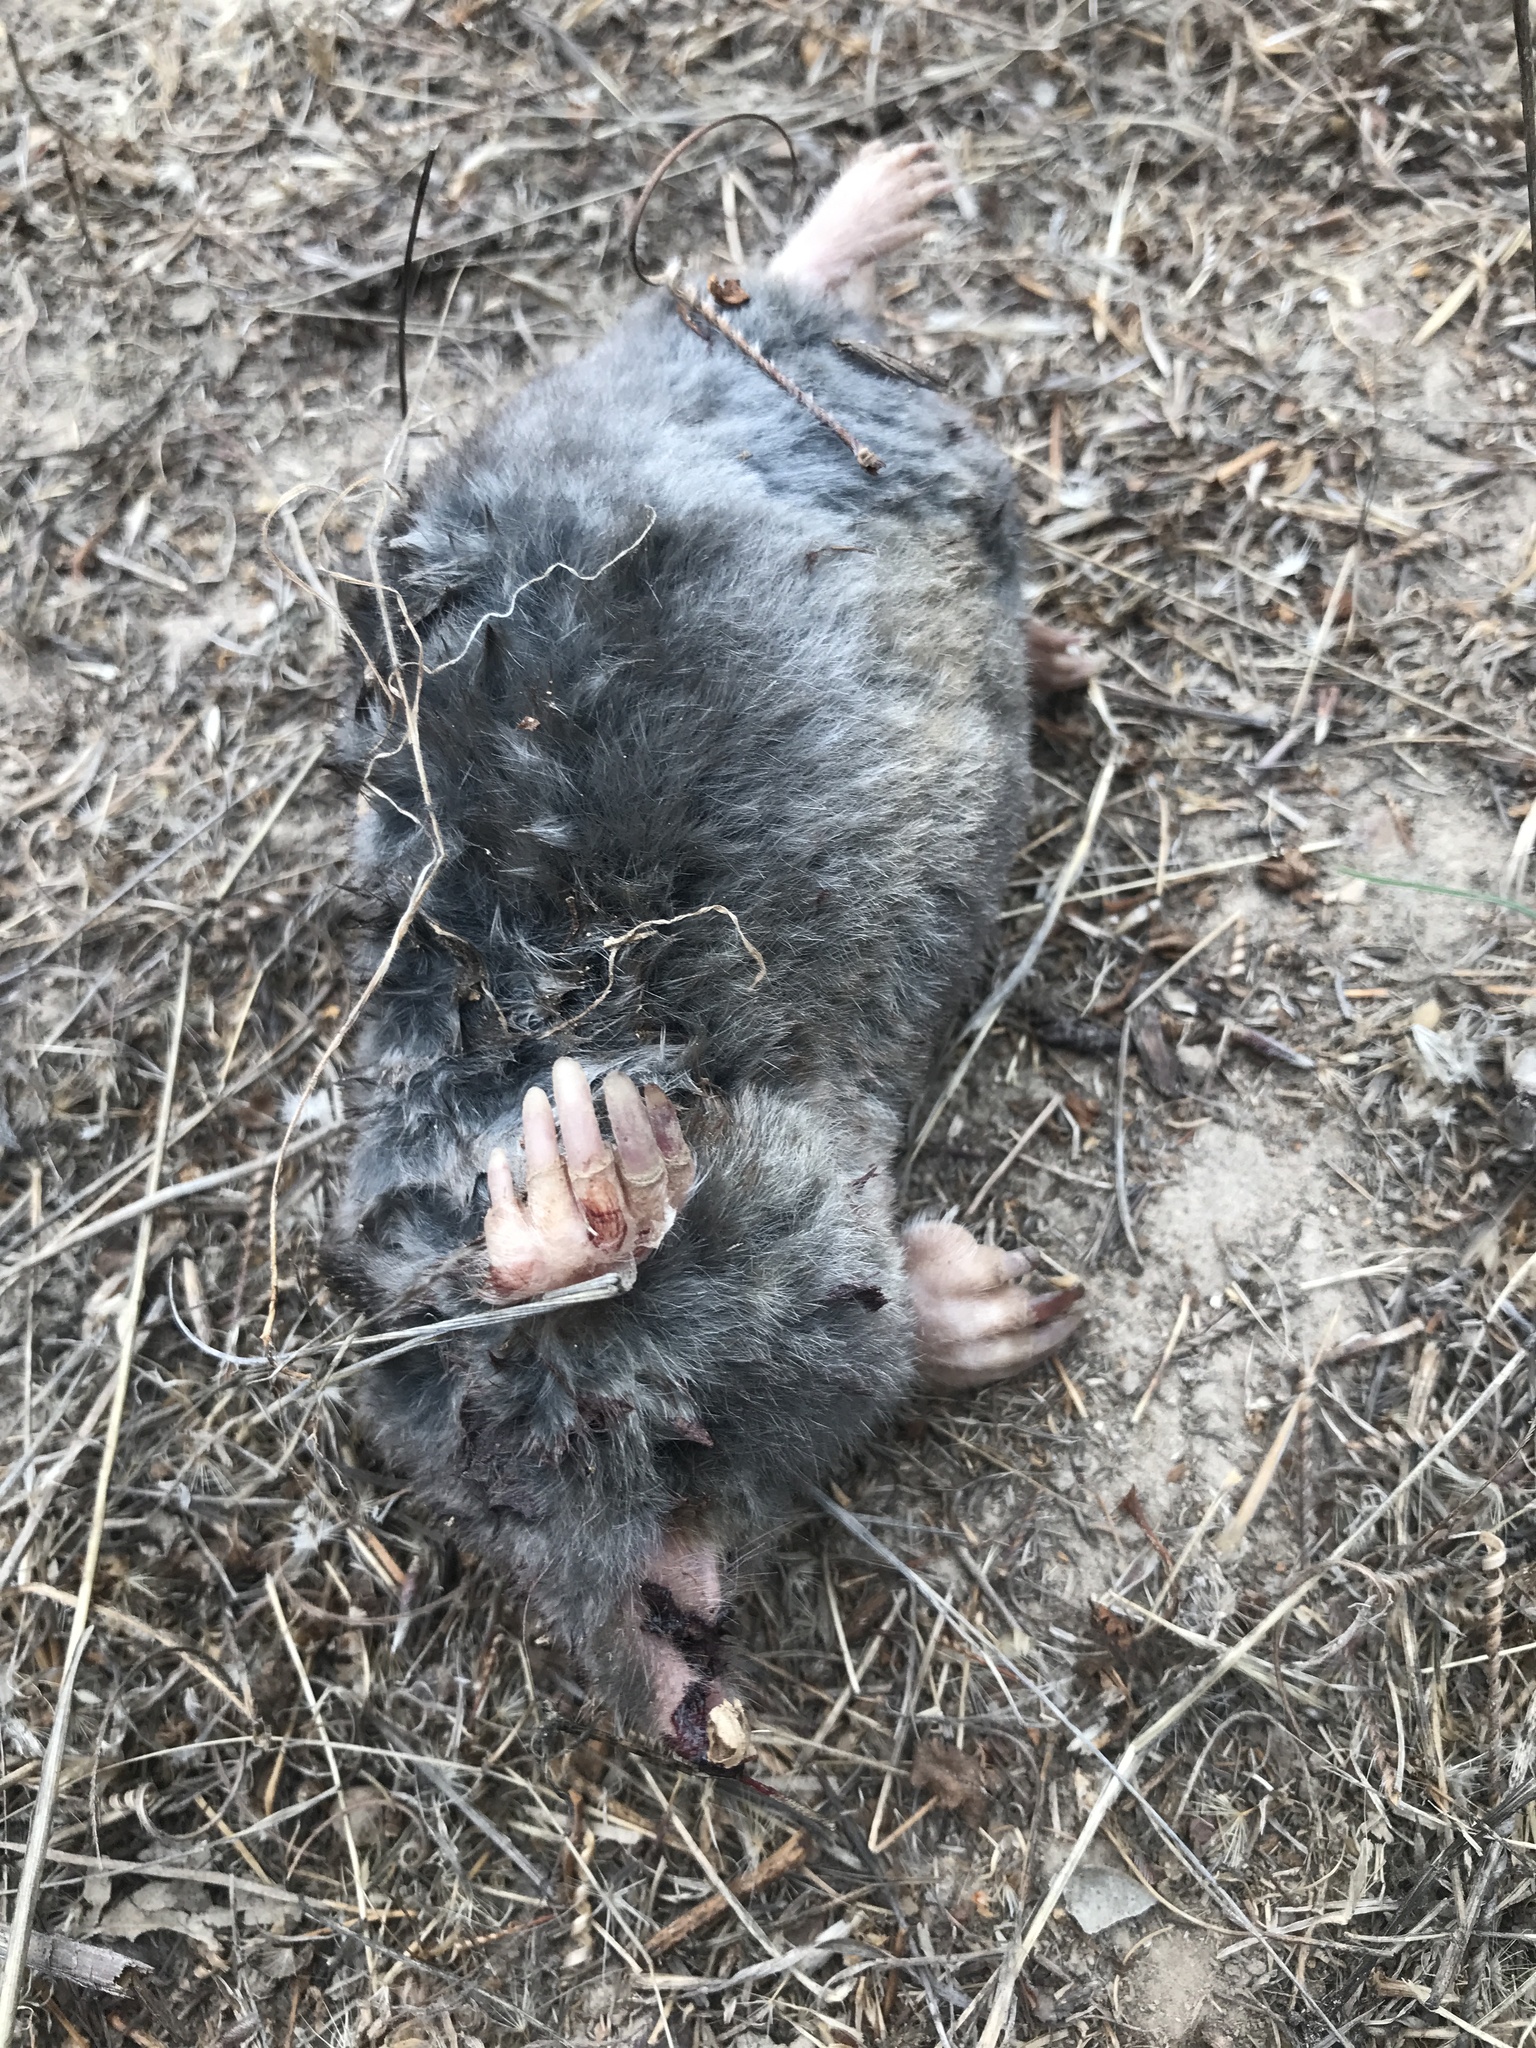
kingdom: Animalia
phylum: Chordata
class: Mammalia
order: Soricomorpha
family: Talpidae
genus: Scapanus
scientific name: Scapanus latimanus
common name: Broad-footed mole
